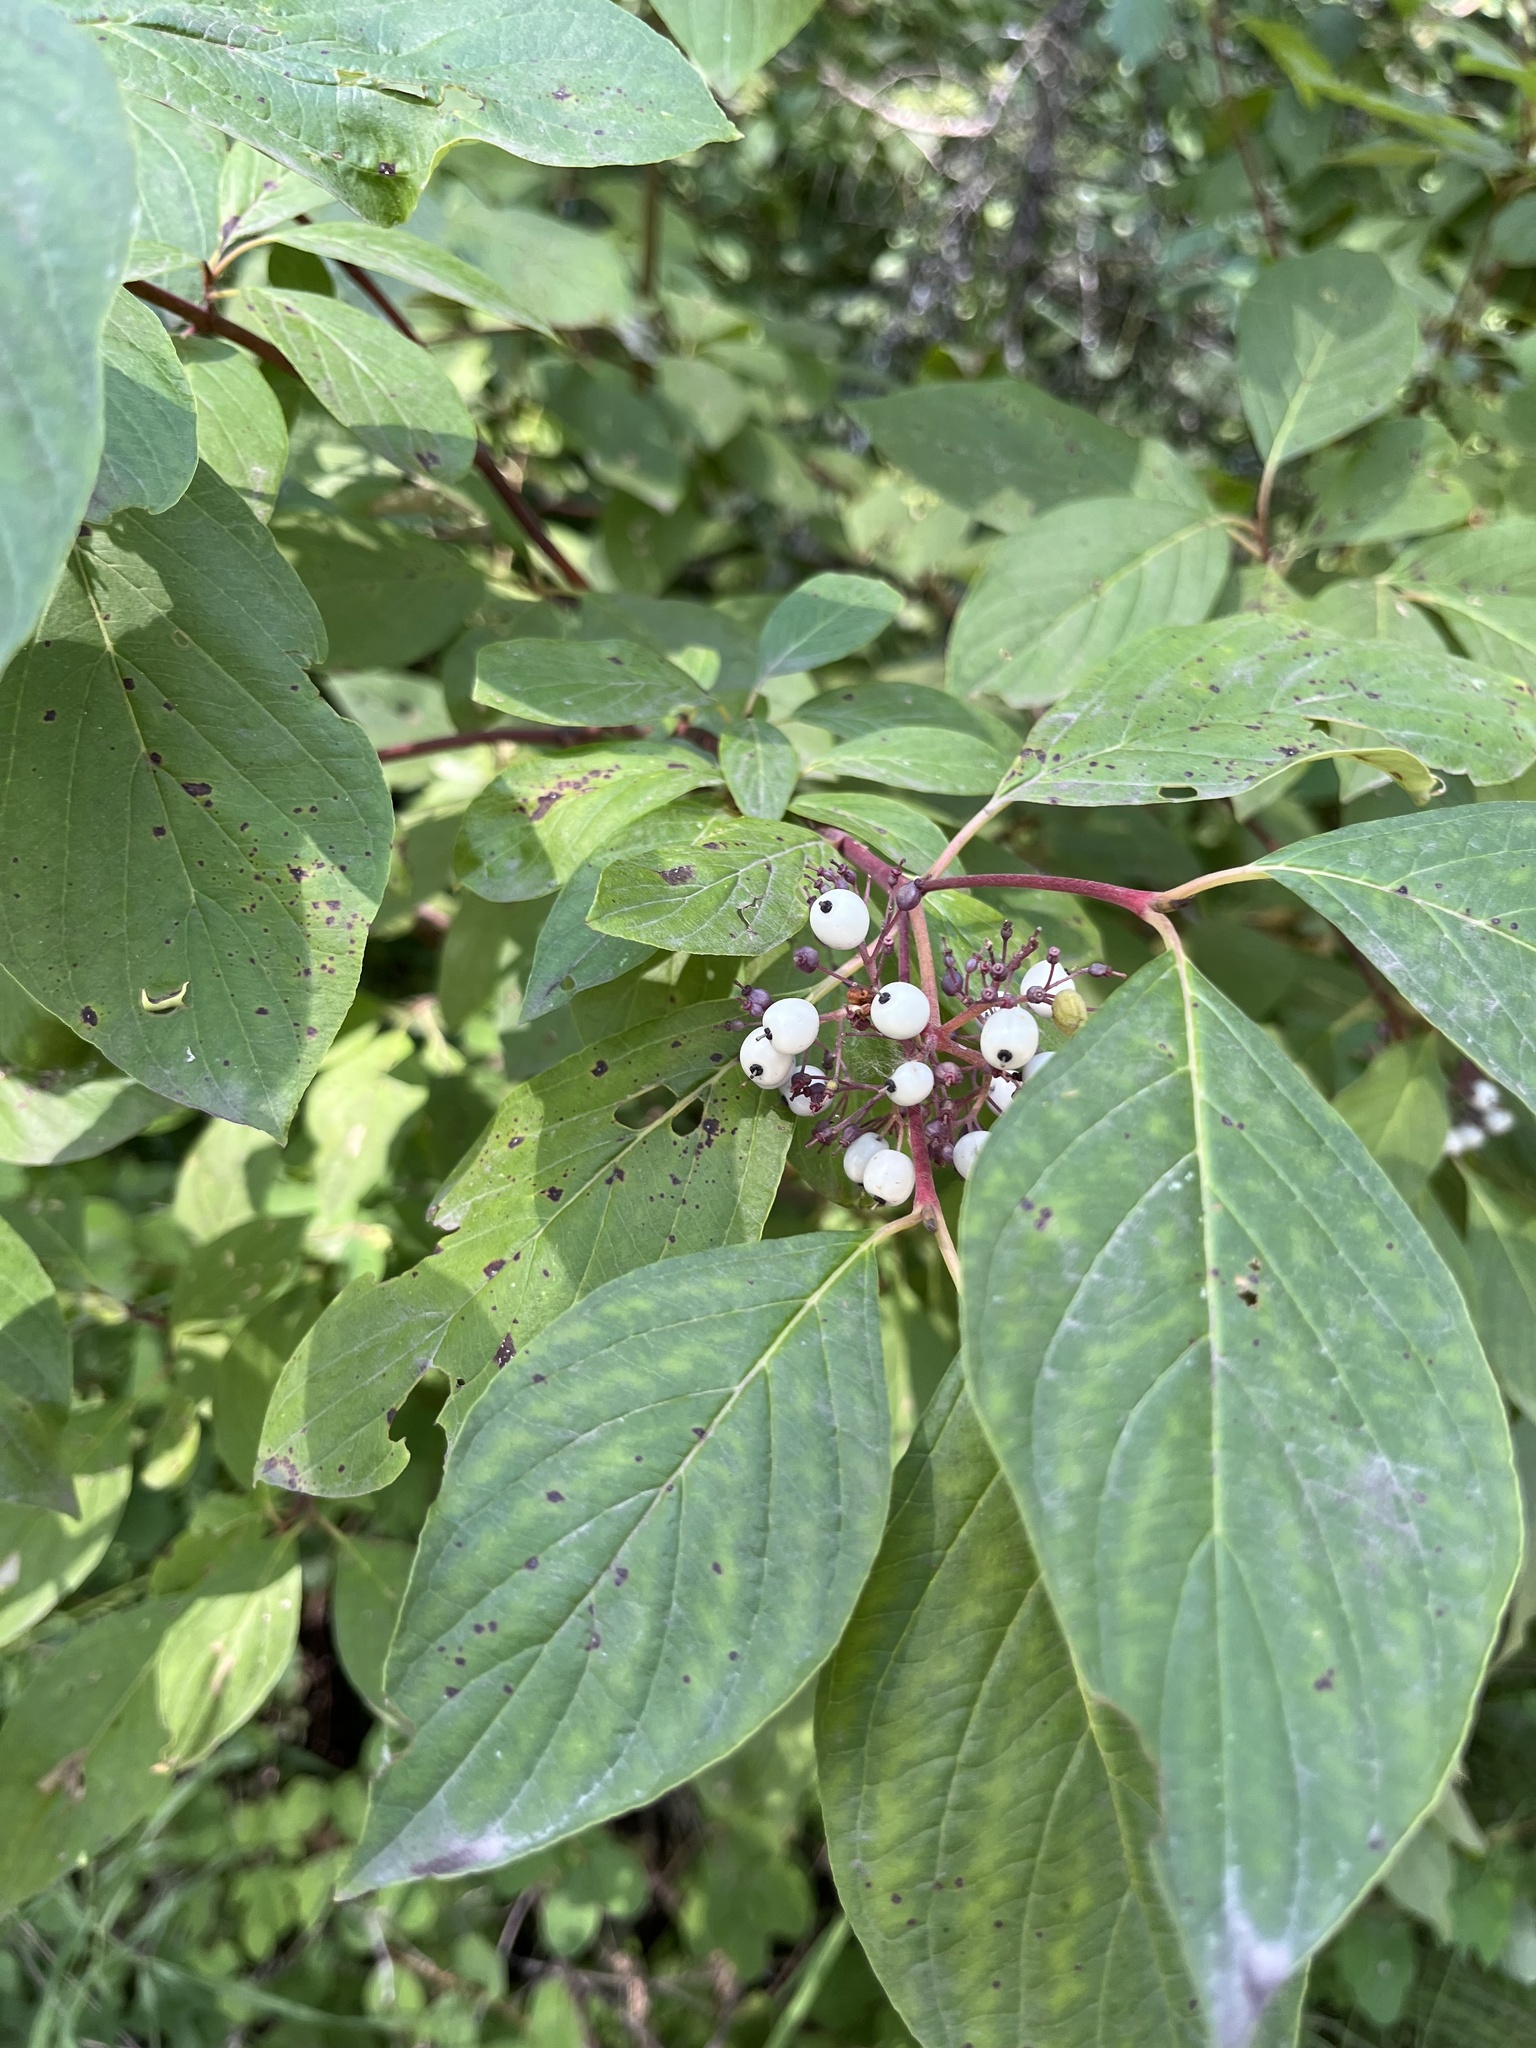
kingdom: Plantae
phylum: Tracheophyta
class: Magnoliopsida
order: Cornales
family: Cornaceae
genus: Cornus
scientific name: Cornus sericea
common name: Red-osier dogwood
